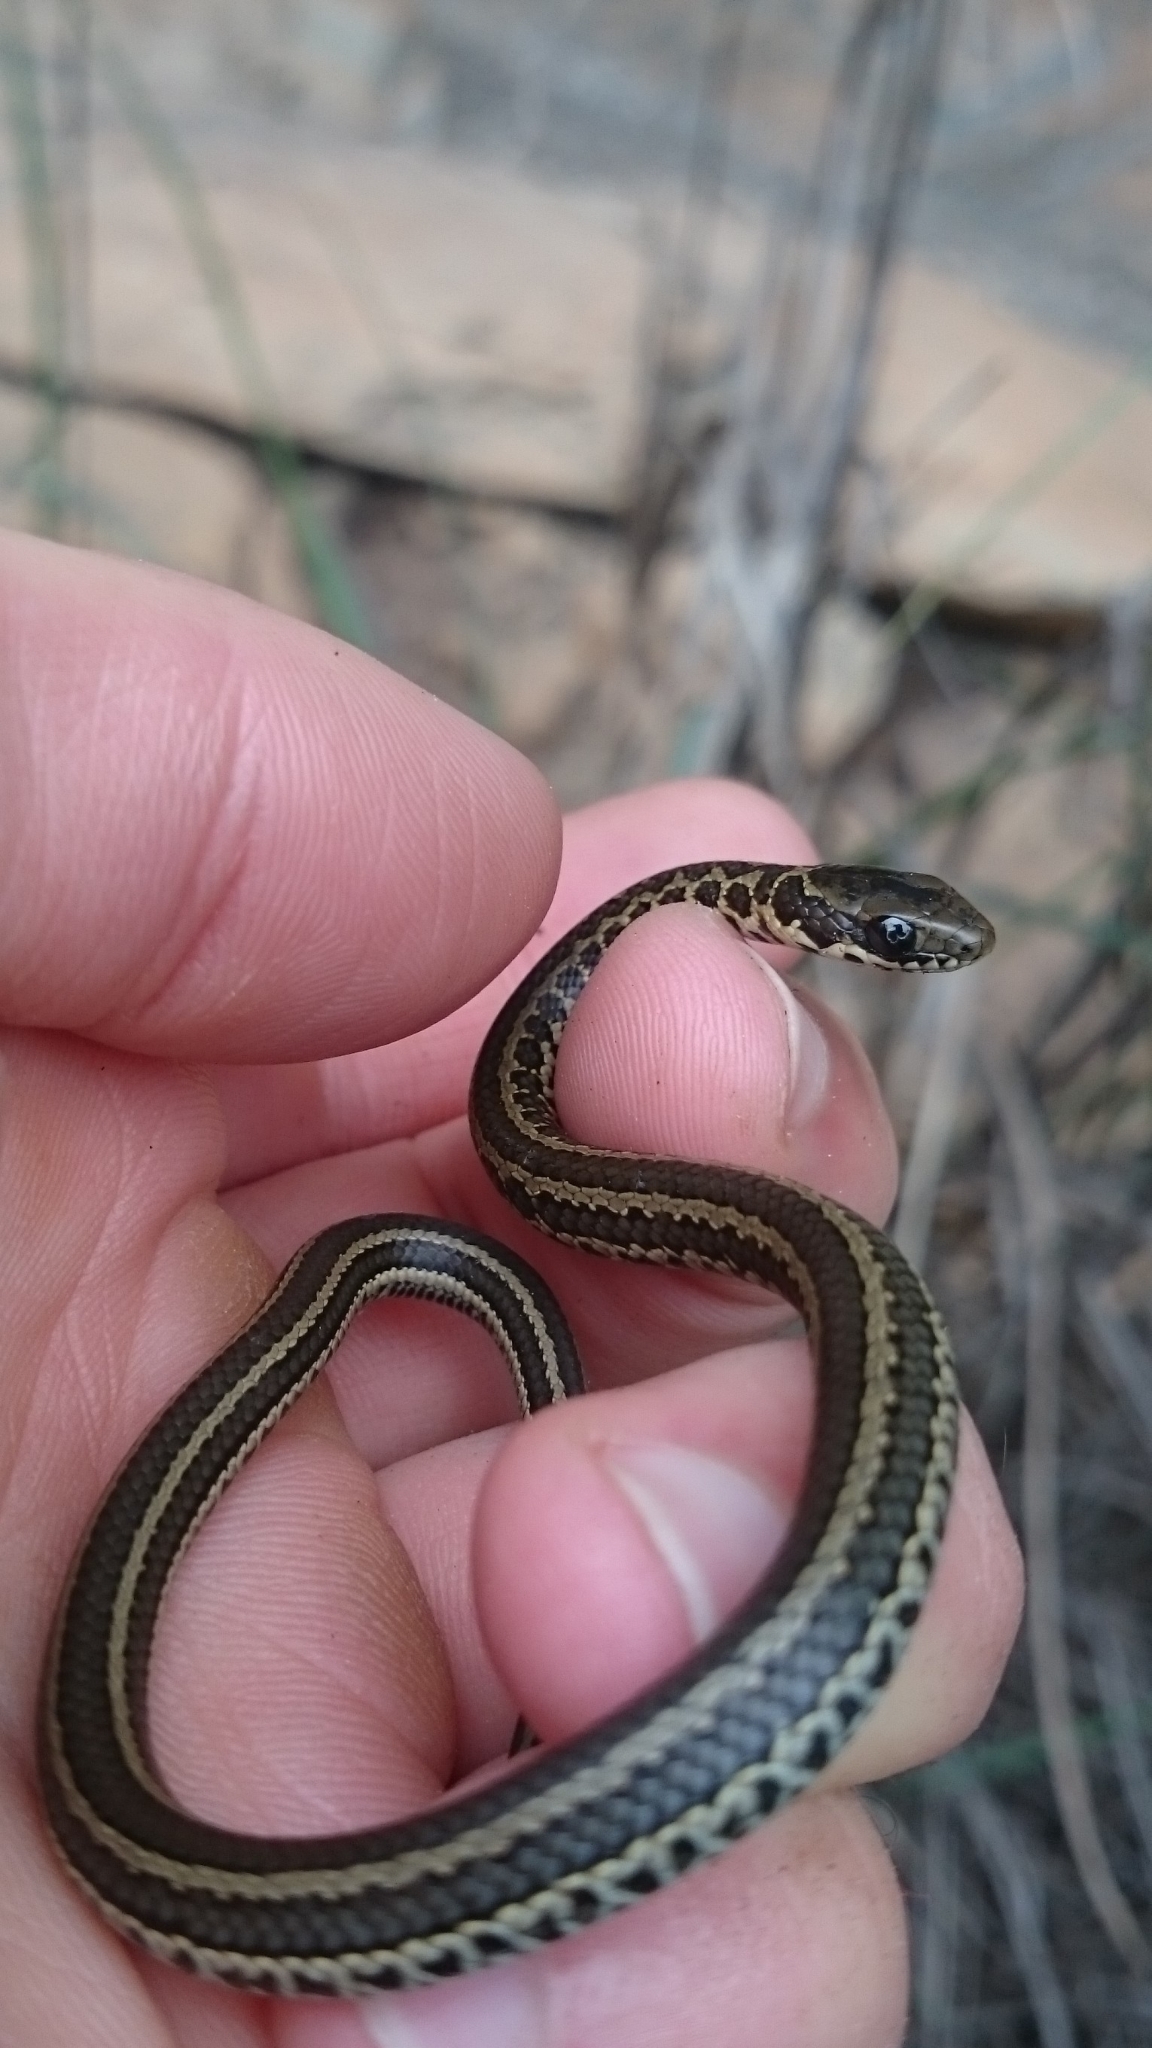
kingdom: Animalia
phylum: Chordata
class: Squamata
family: Psammophiidae
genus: Psammophylax
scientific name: Psammophylax rhombeatus
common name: Rhombic skaapsteker
